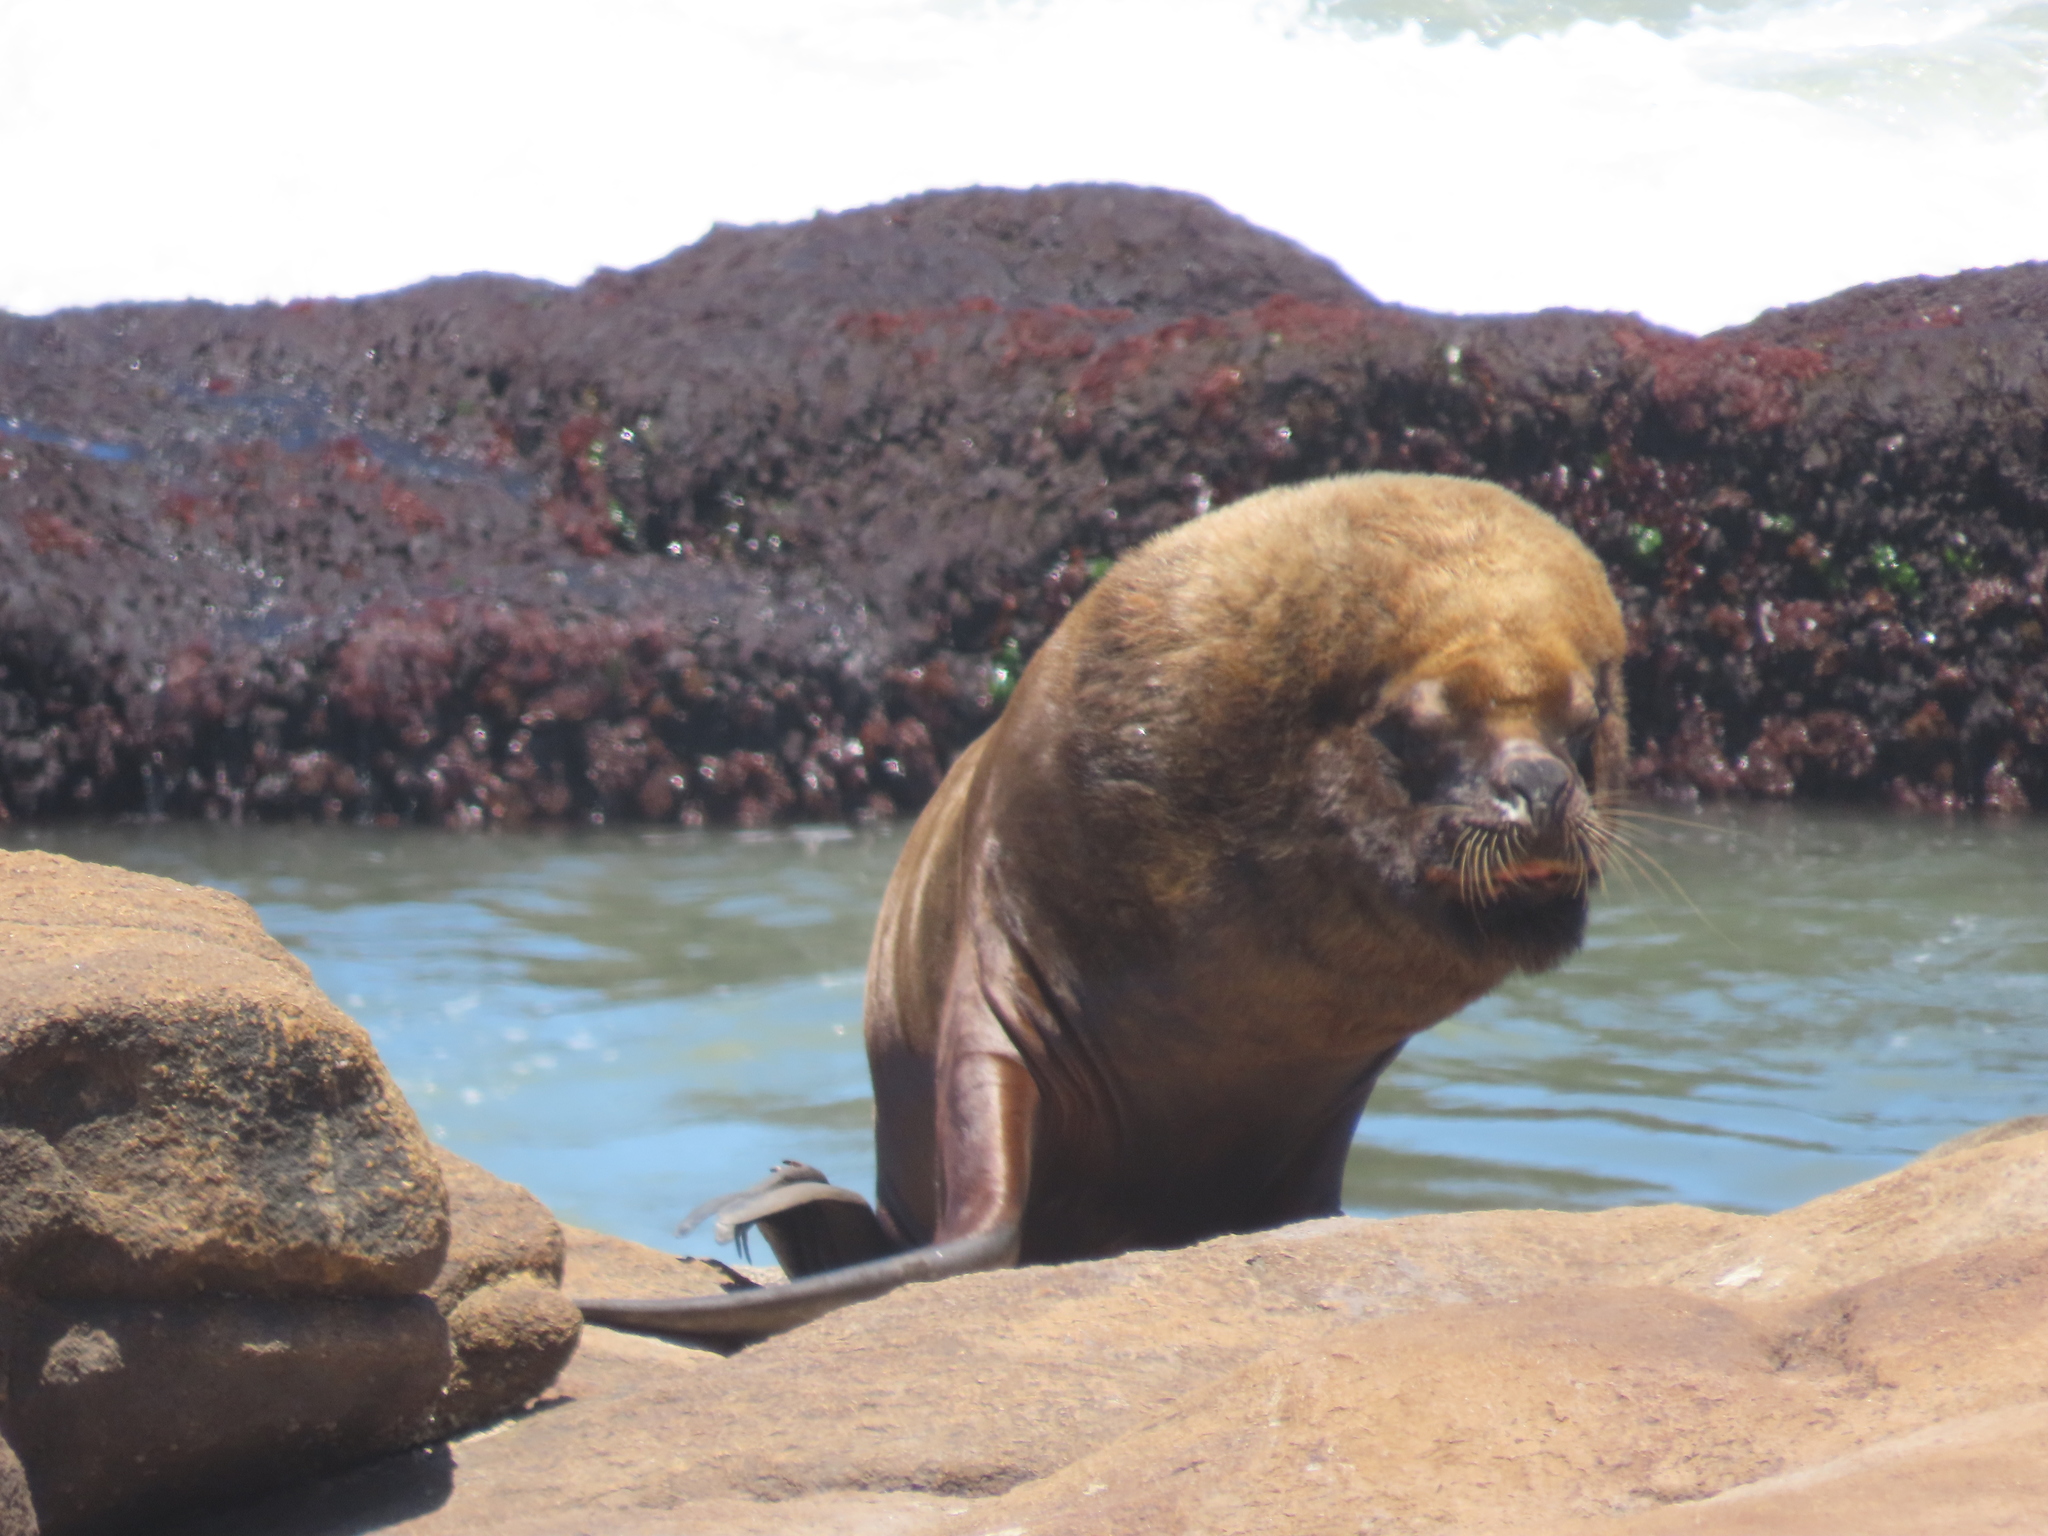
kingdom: Animalia
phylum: Chordata
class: Mammalia
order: Carnivora
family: Otariidae
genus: Otaria
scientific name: Otaria byronia
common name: South american sea lion
